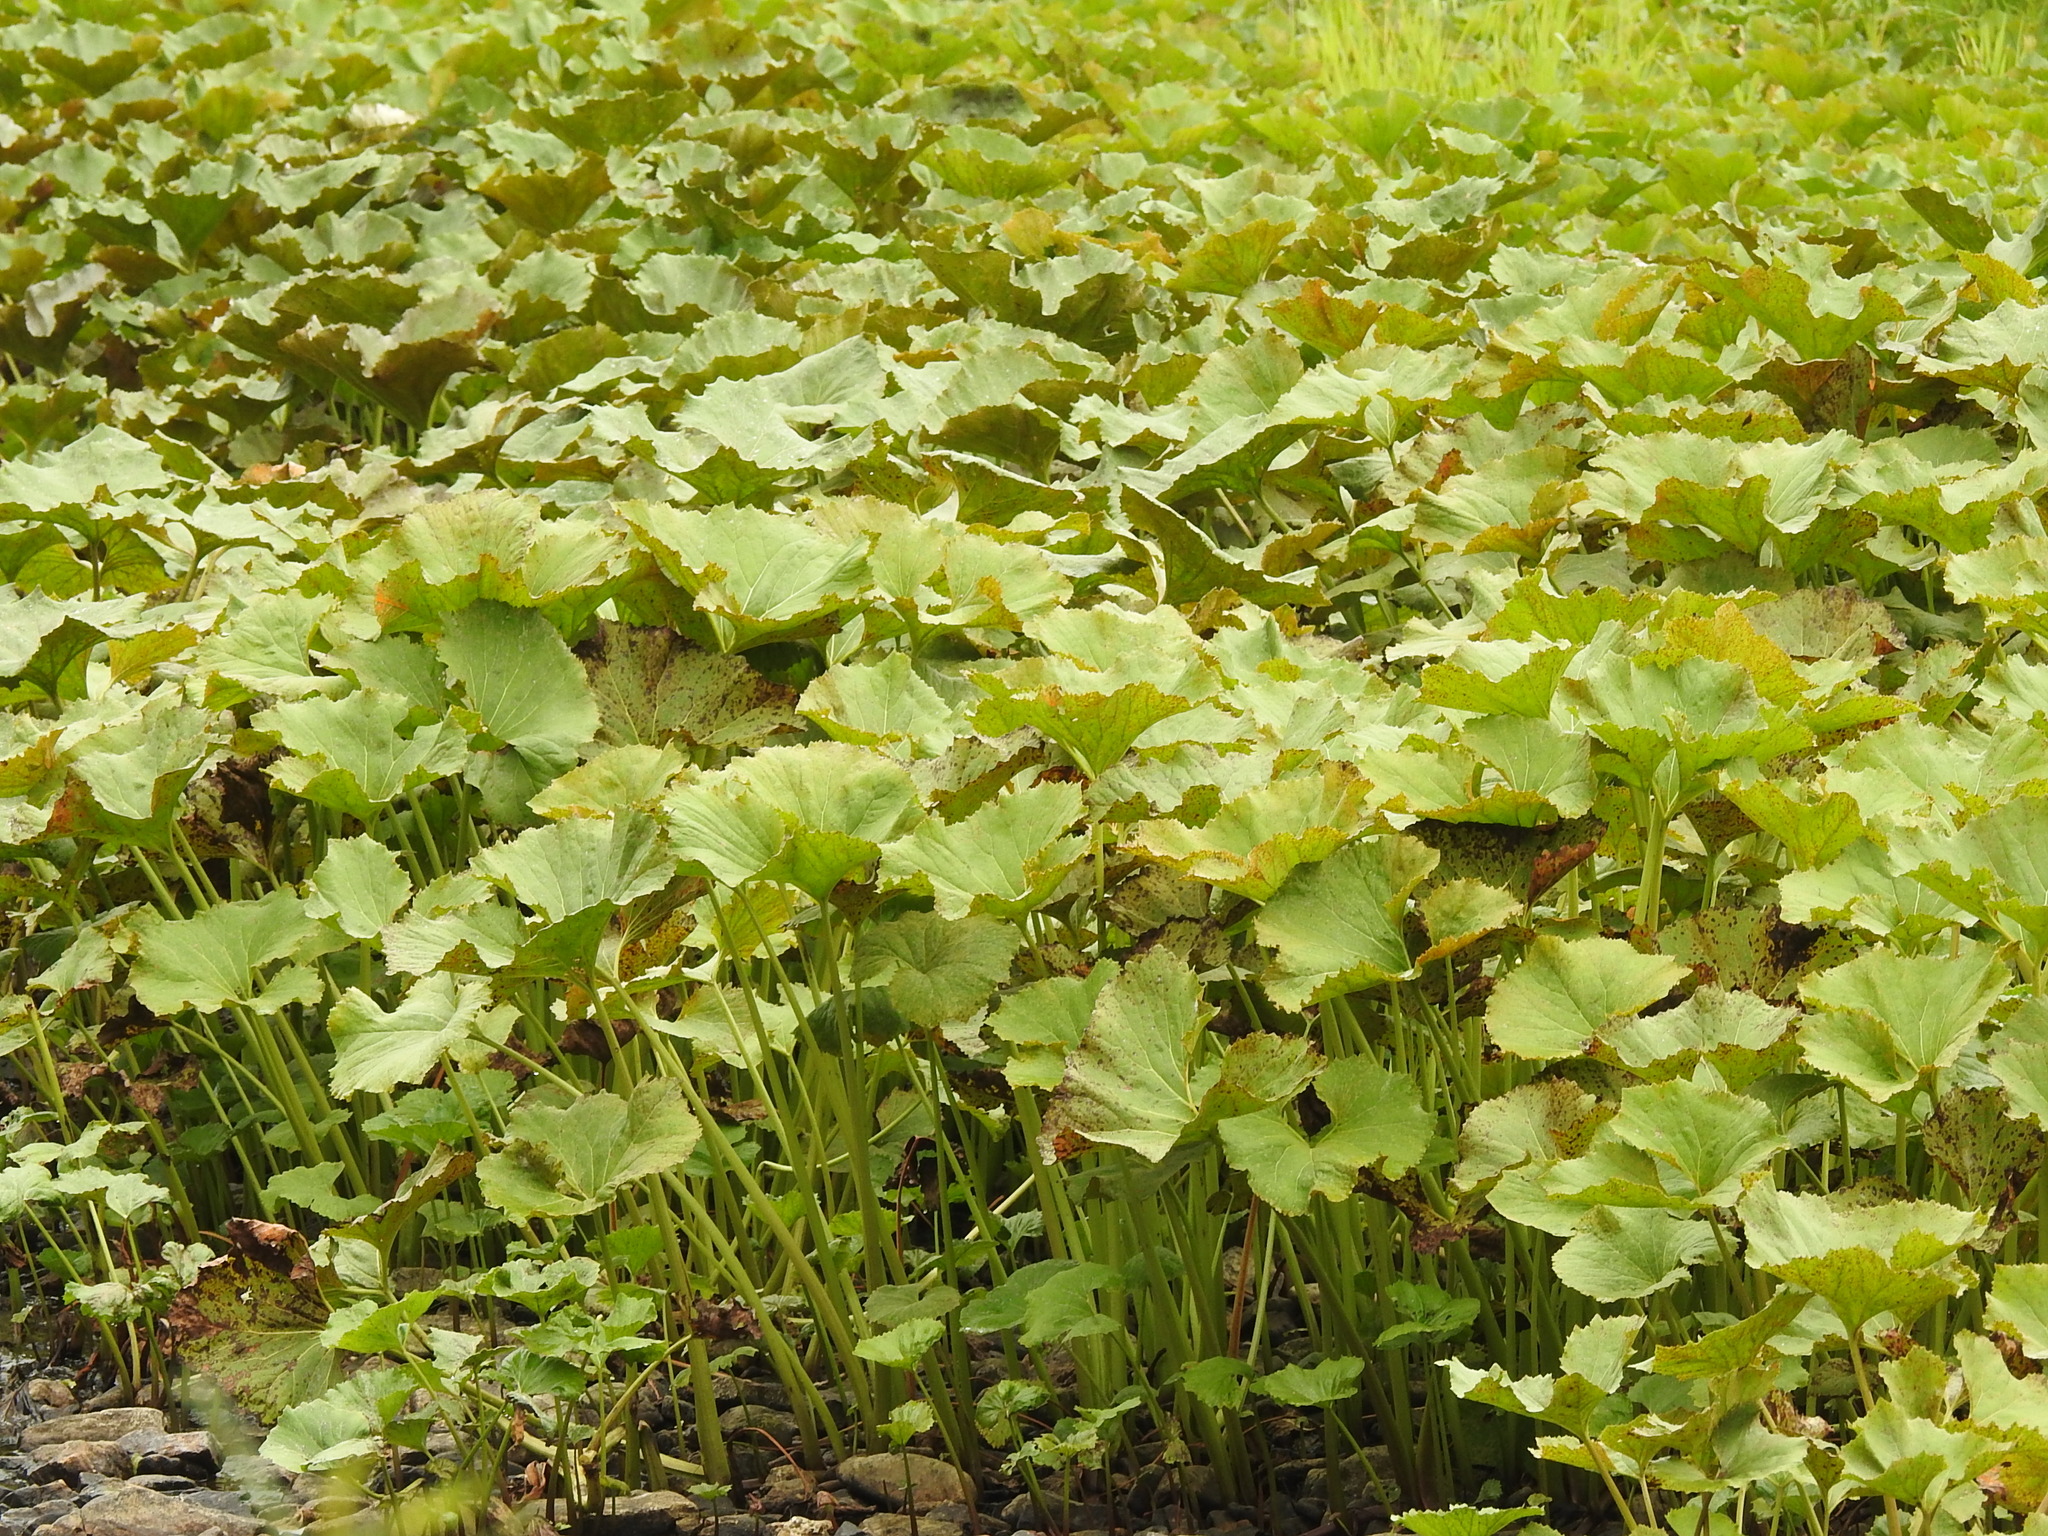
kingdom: Plantae
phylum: Tracheophyta
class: Magnoliopsida
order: Asterales
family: Asteraceae
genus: Petasites
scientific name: Petasites radiatus
